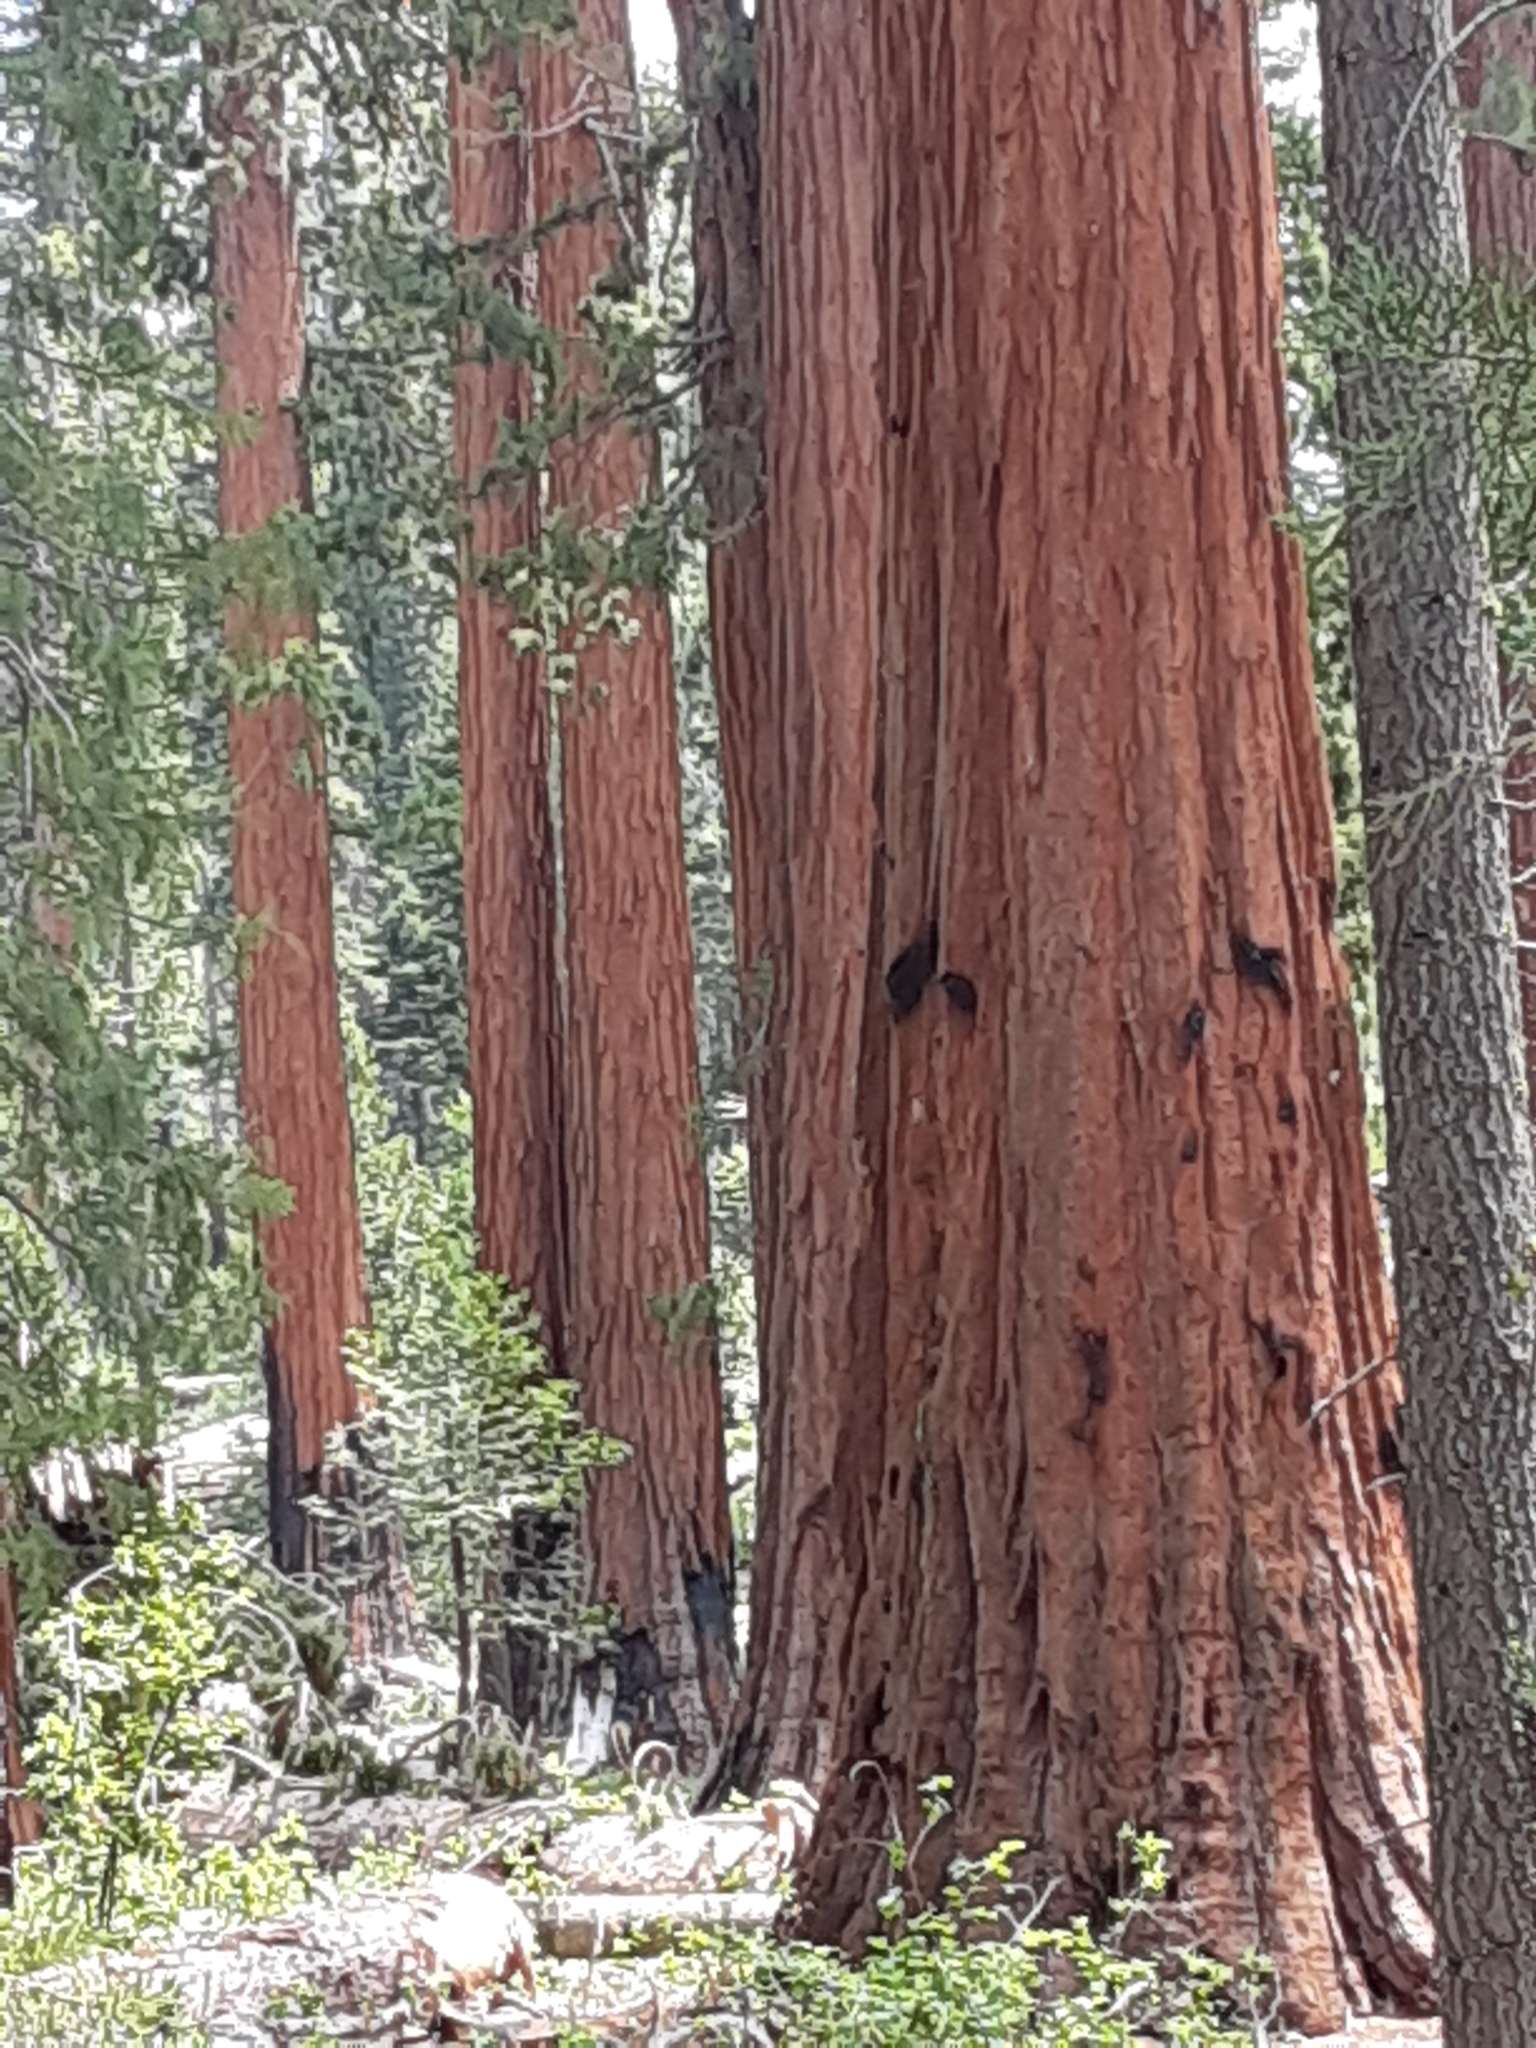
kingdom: Plantae
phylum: Tracheophyta
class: Pinopsida
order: Pinales
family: Cupressaceae
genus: Sequoiadendron
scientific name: Sequoiadendron giganteum
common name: Wellingtonia
